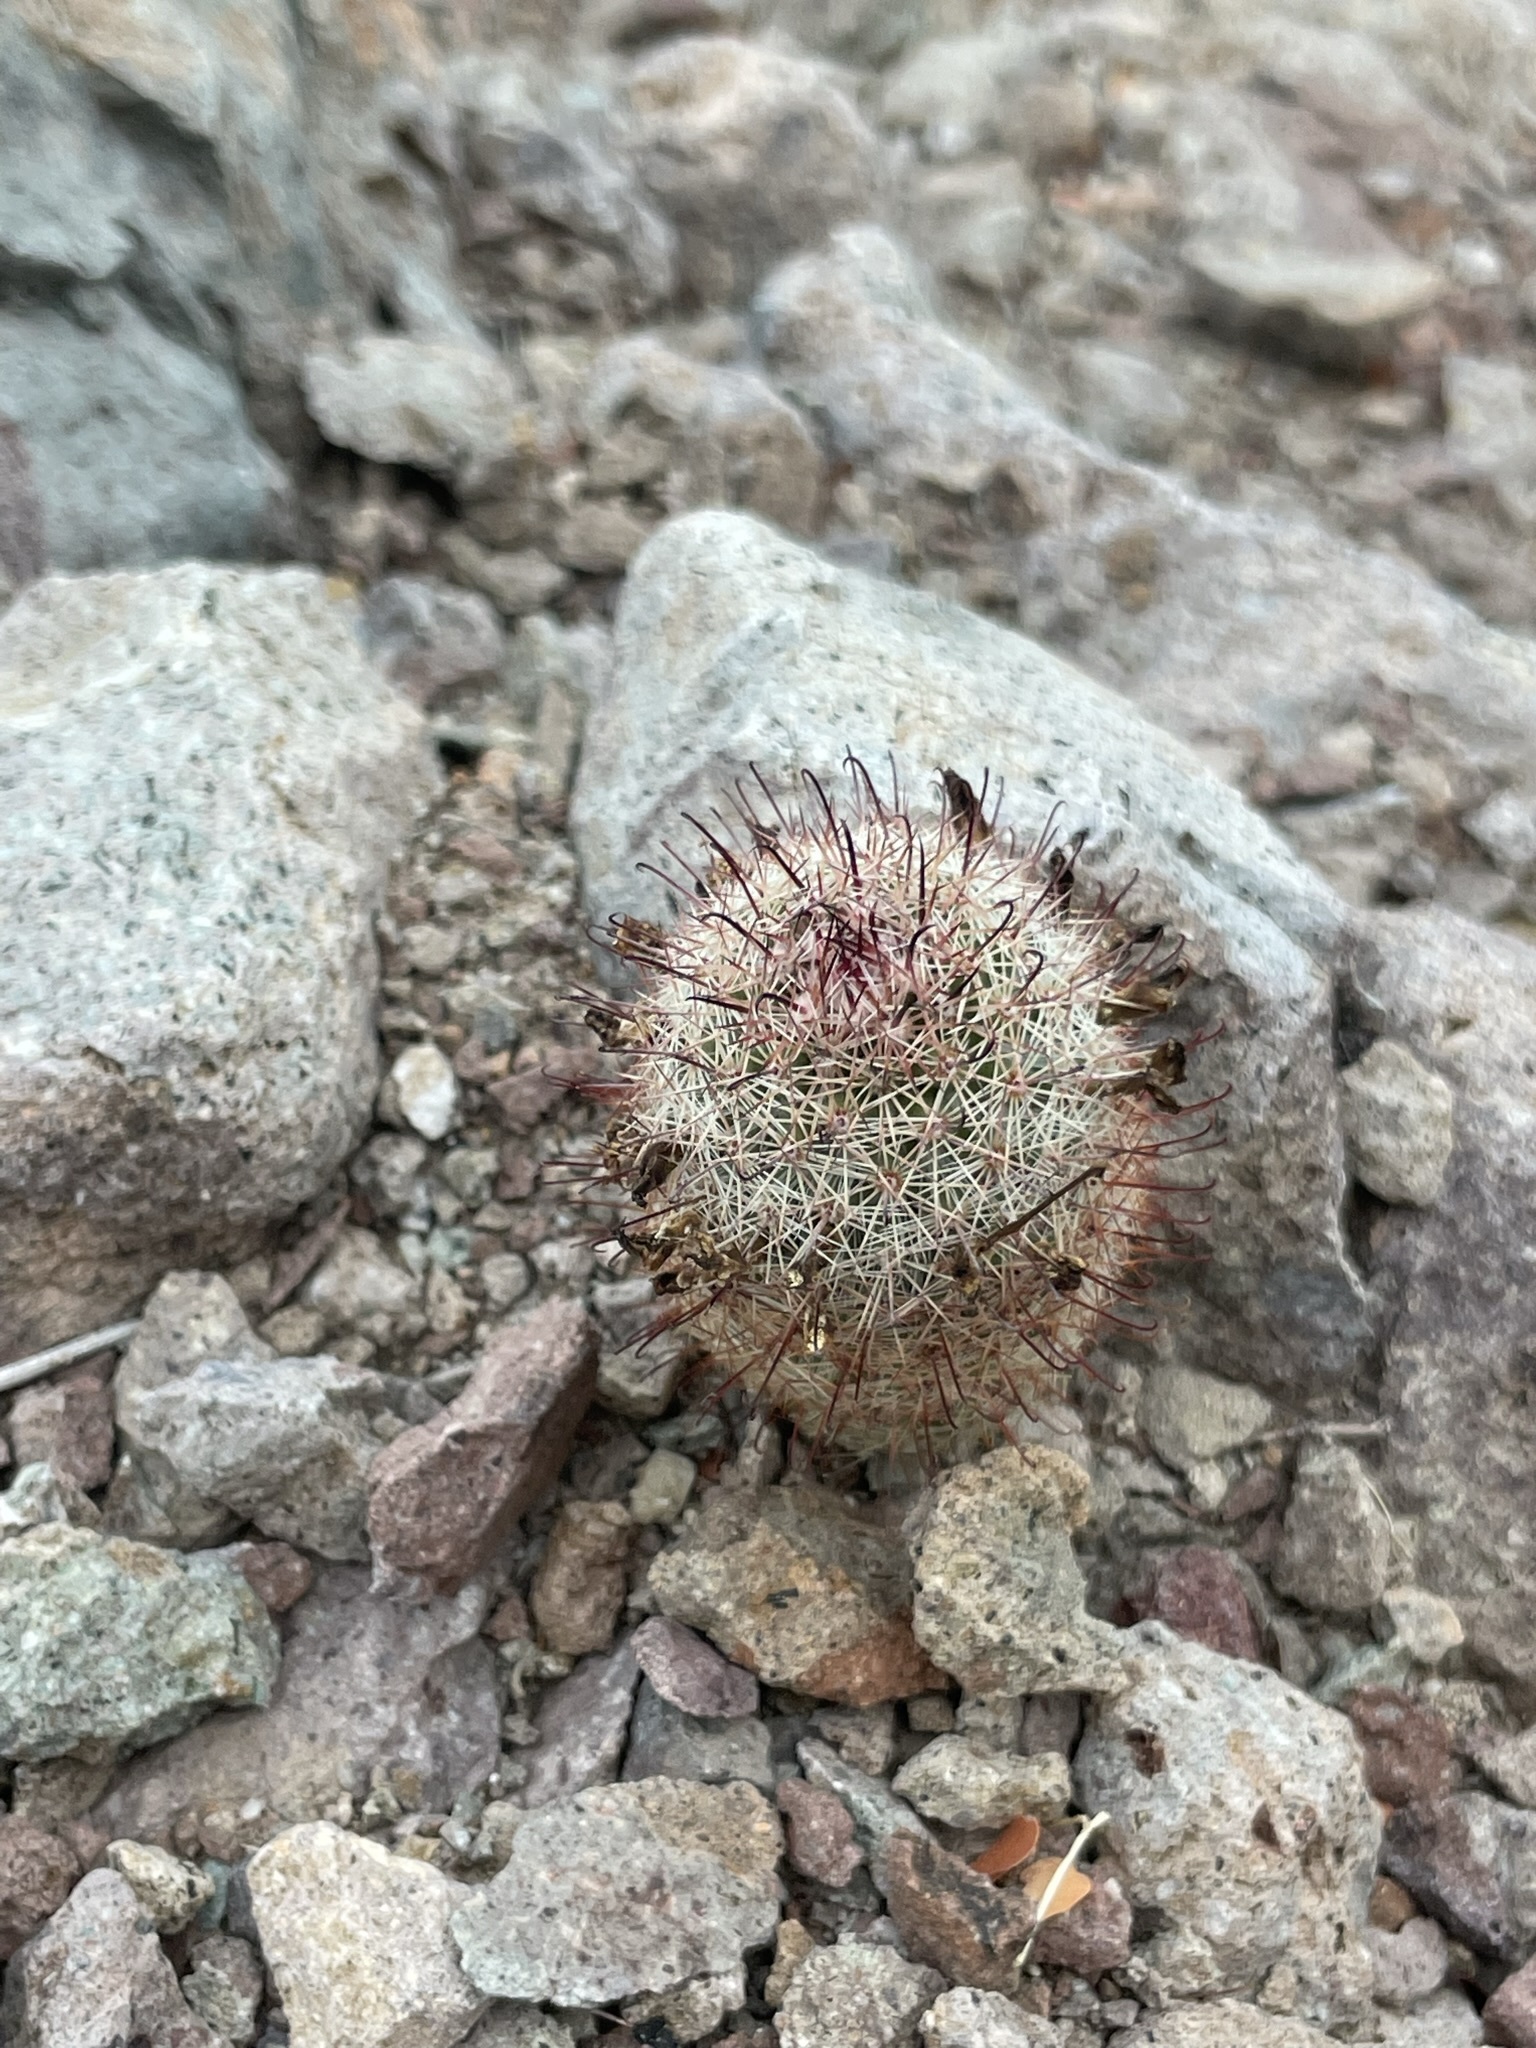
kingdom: Plantae
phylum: Tracheophyta
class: Magnoliopsida
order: Caryophyllales
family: Cactaceae
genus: Cochemiea
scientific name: Cochemiea dioica
